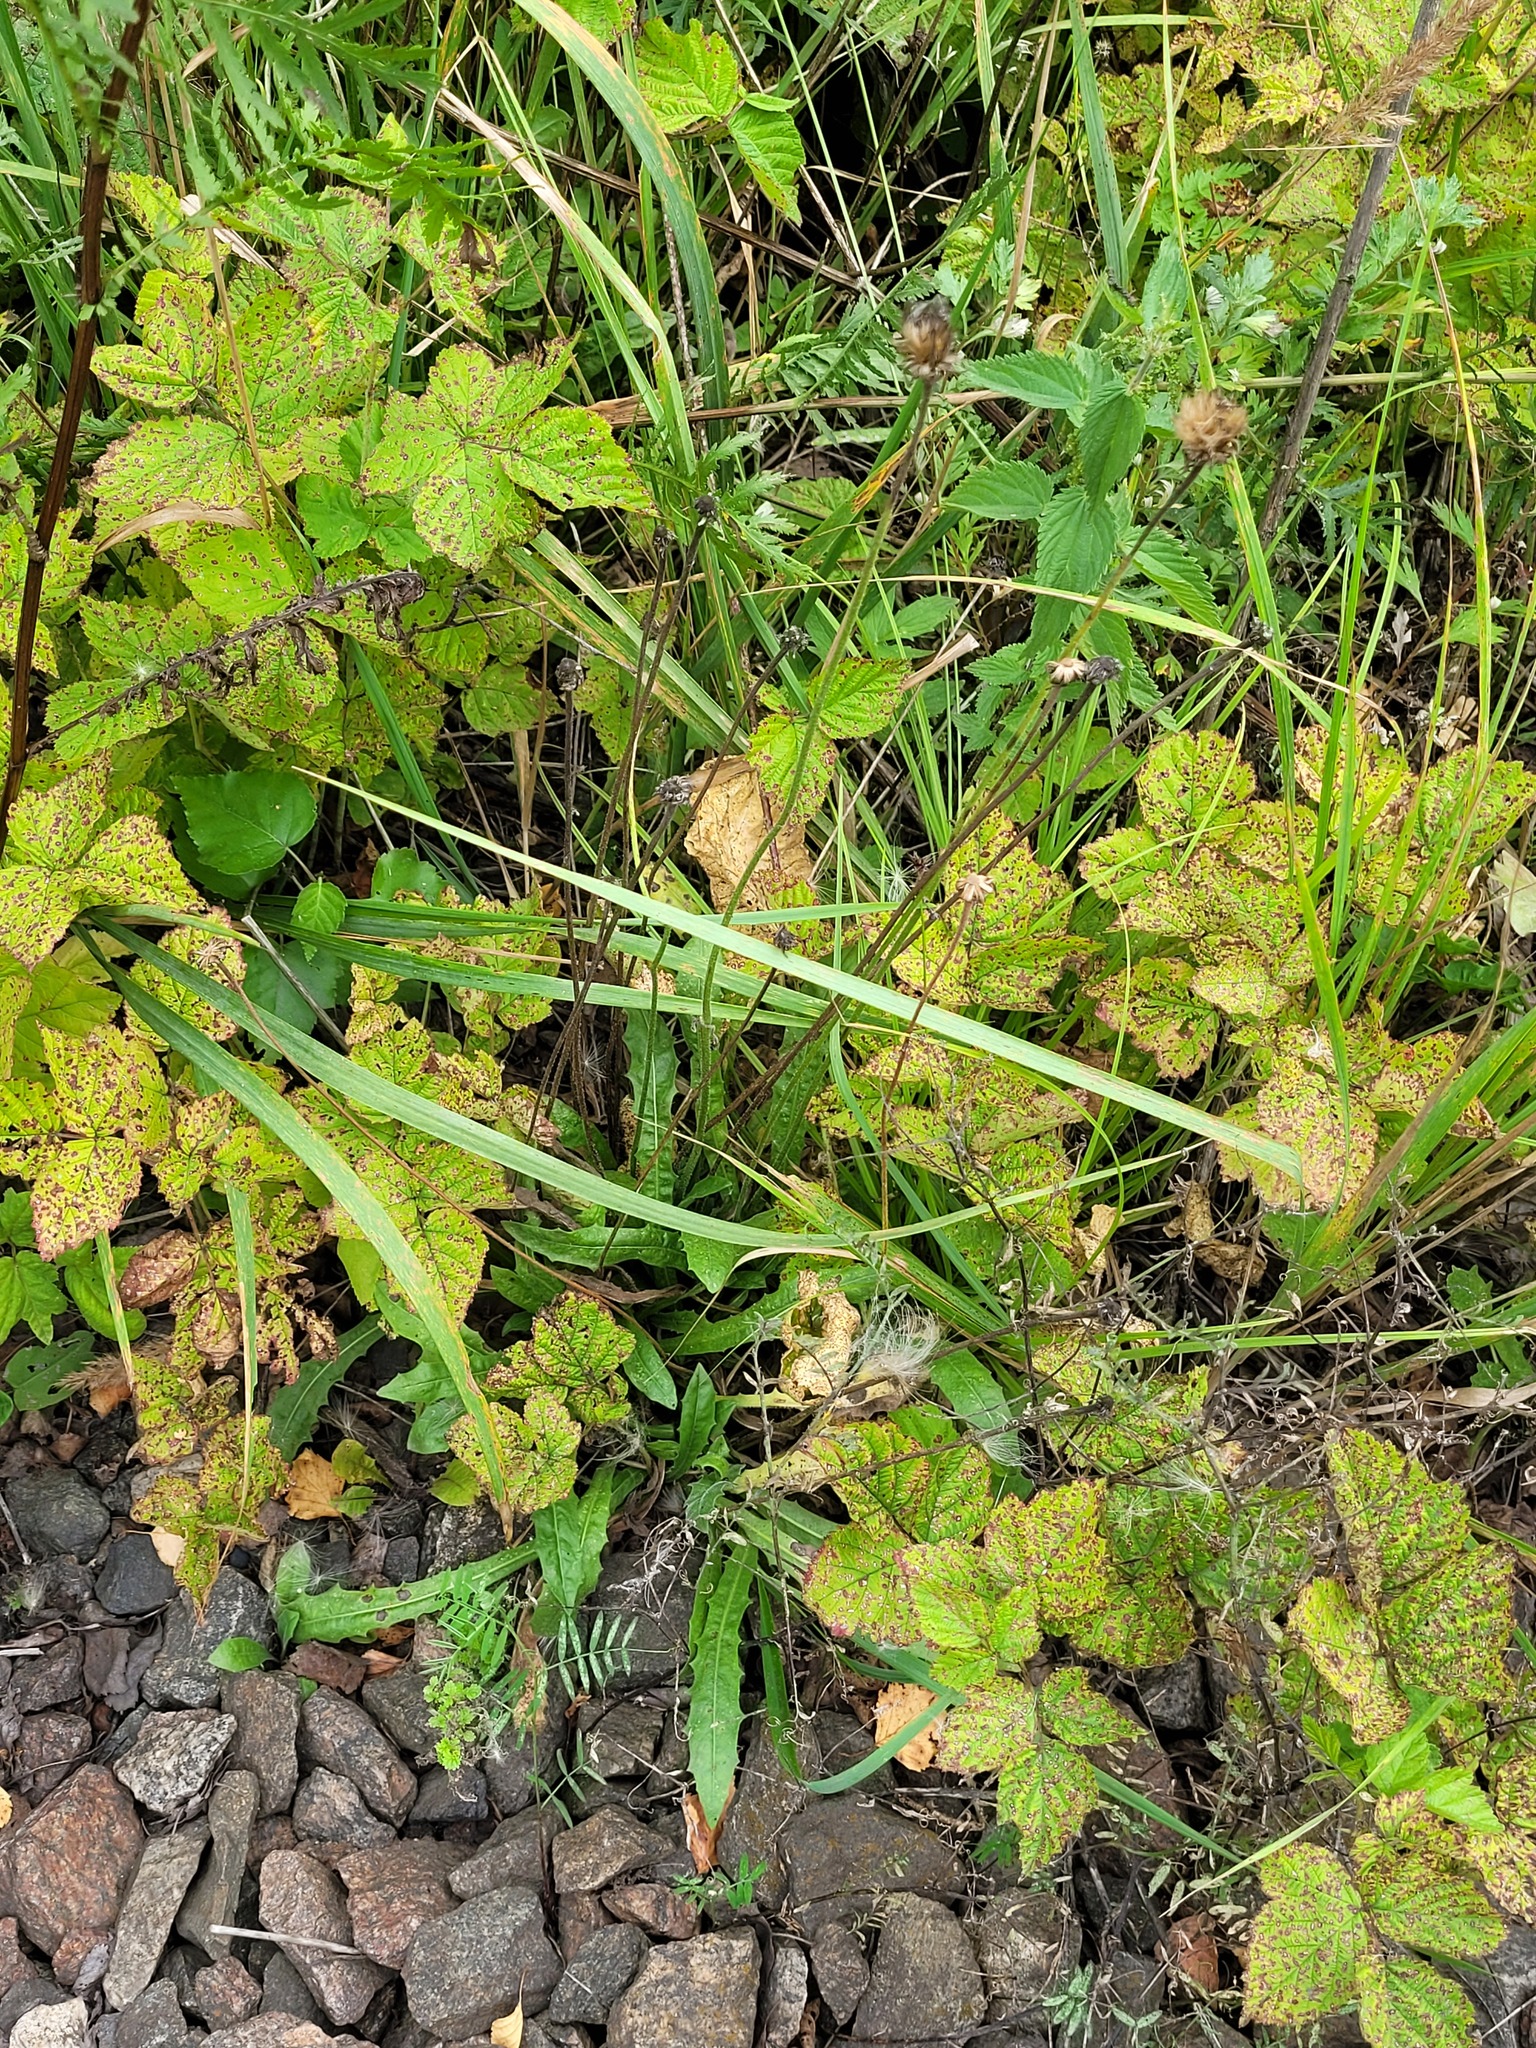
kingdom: Plantae
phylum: Tracheophyta
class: Magnoliopsida
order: Asterales
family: Asteraceae
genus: Leontodon
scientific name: Leontodon hispidus
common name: Rough hawkbit
